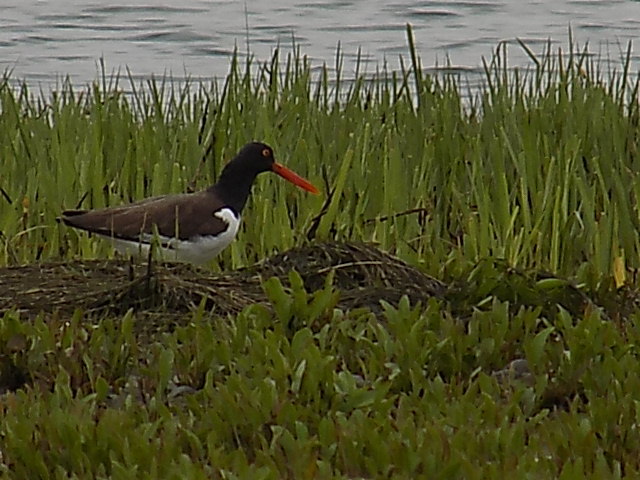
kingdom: Animalia
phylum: Chordata
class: Aves
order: Charadriiformes
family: Haematopodidae
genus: Haematopus
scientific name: Haematopus palliatus
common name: American oystercatcher
